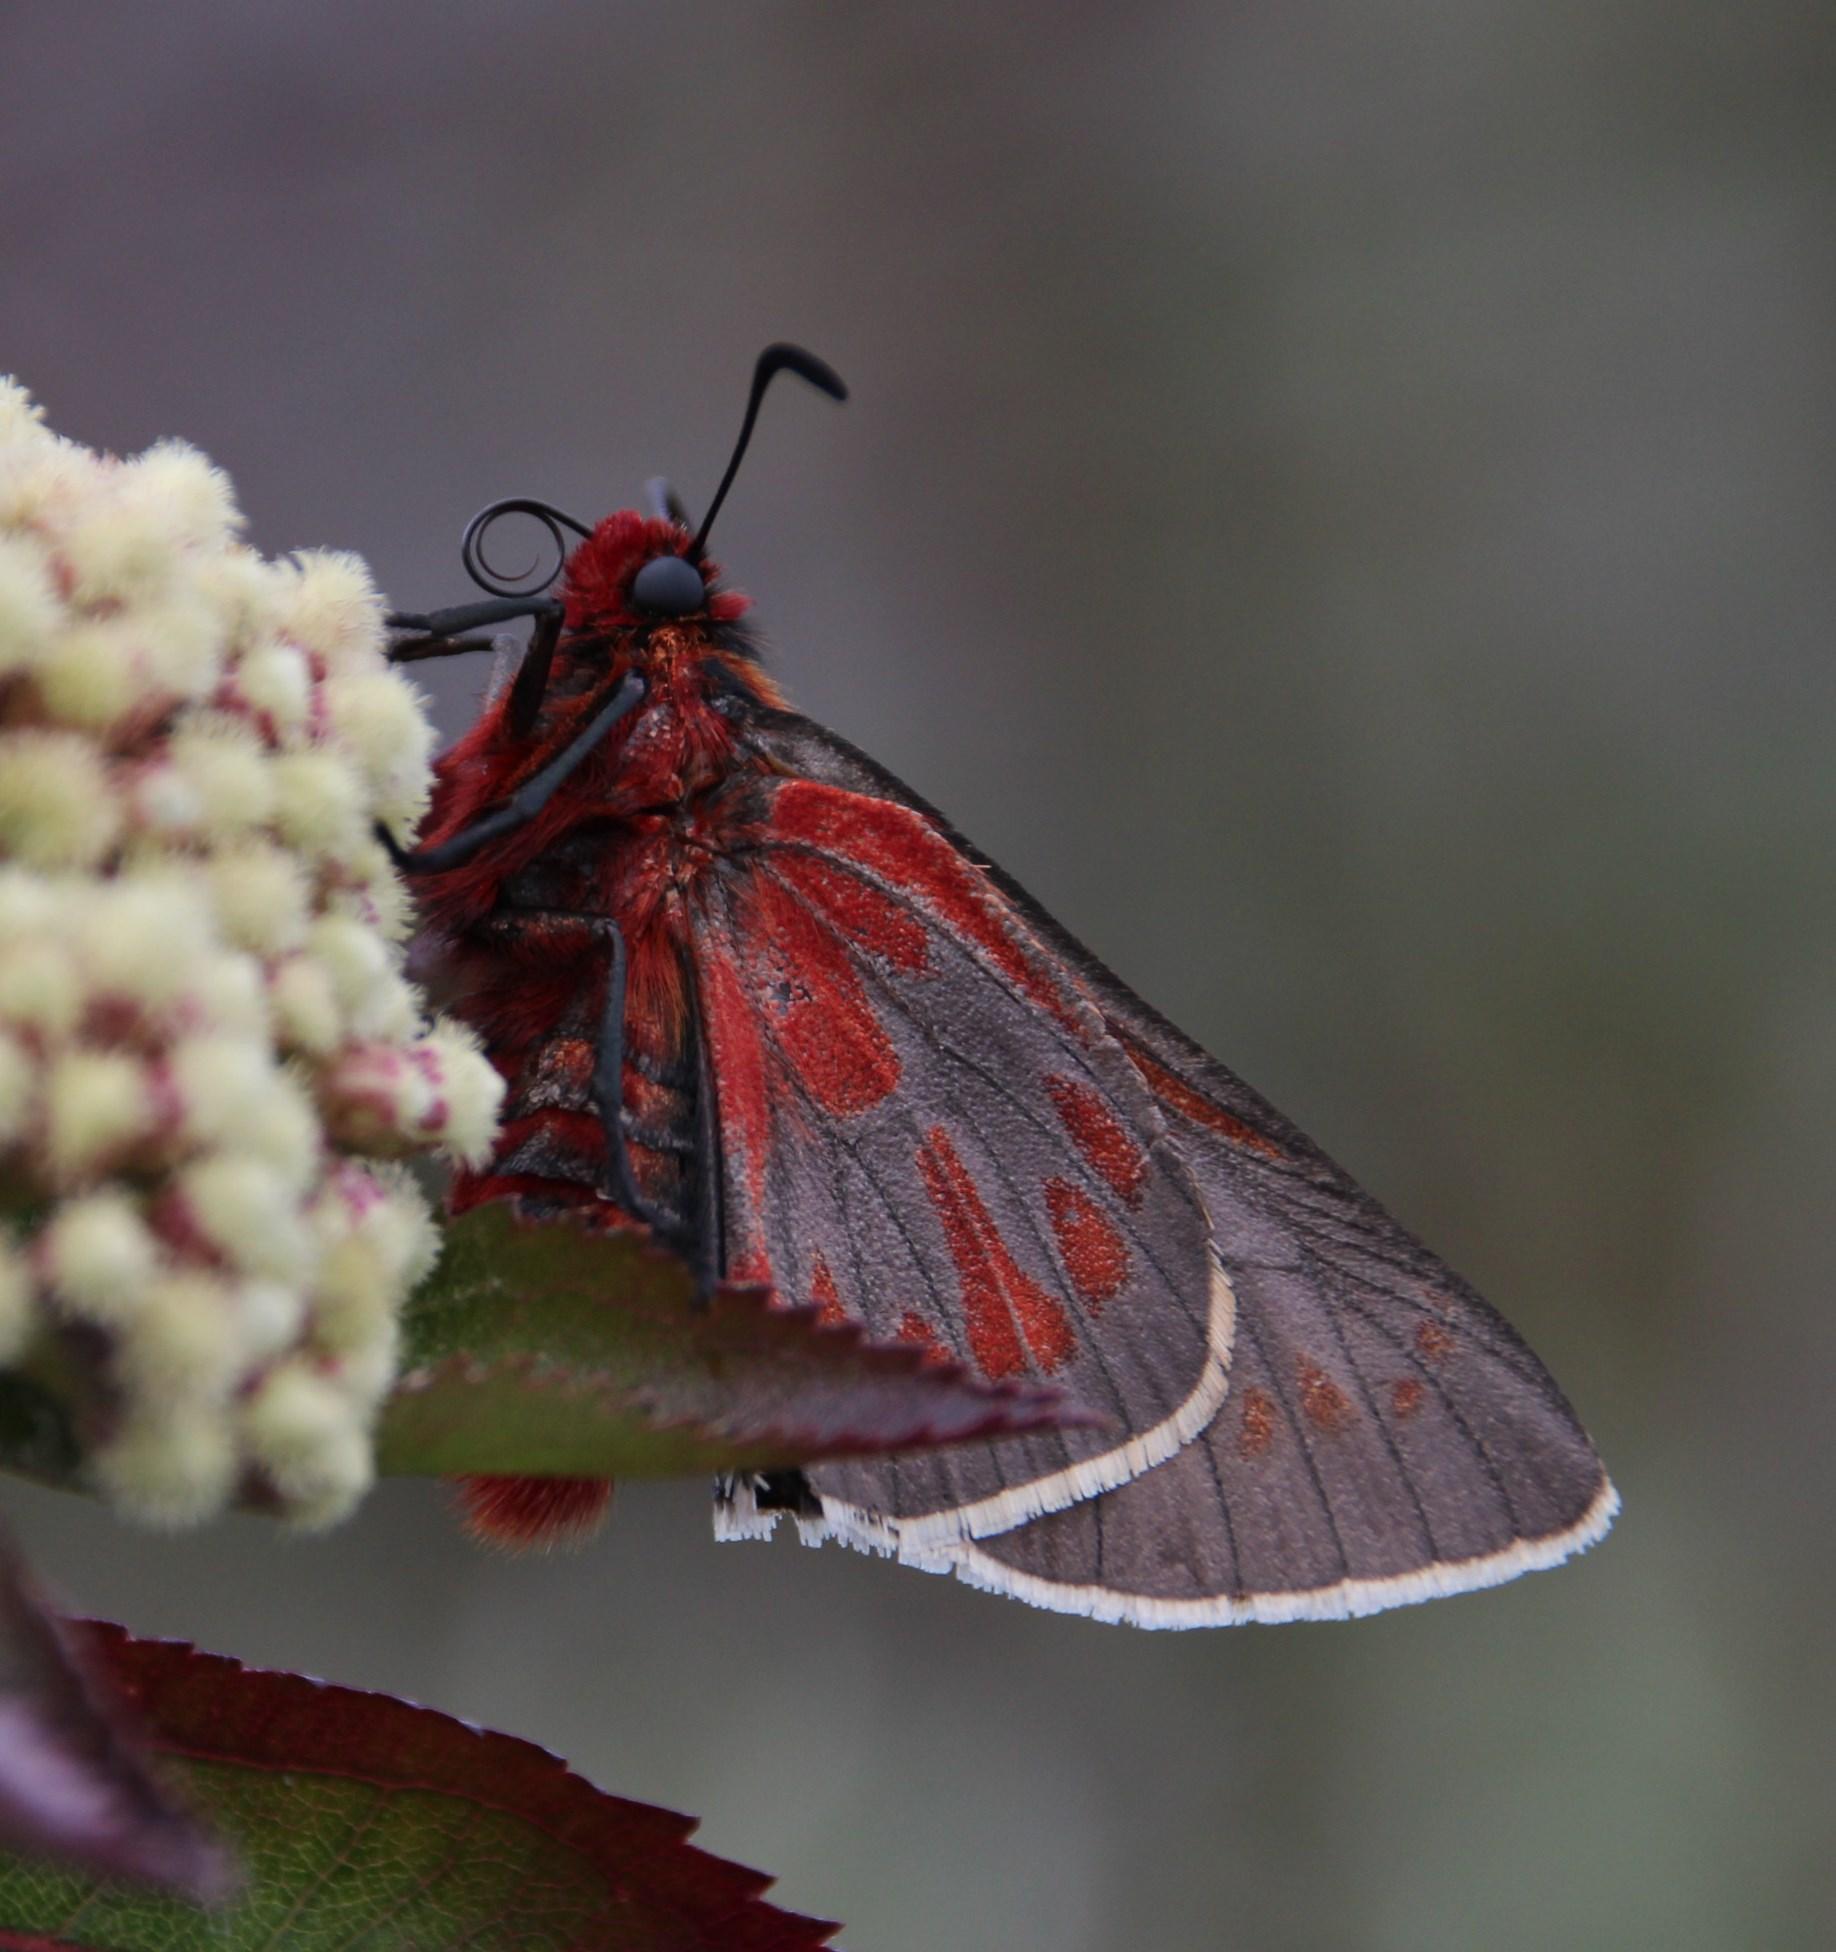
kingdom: Animalia
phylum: Arthropoda
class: Insecta
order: Lepidoptera
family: Hesperiidae
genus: Metardaris
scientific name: Metardaris cosinga
